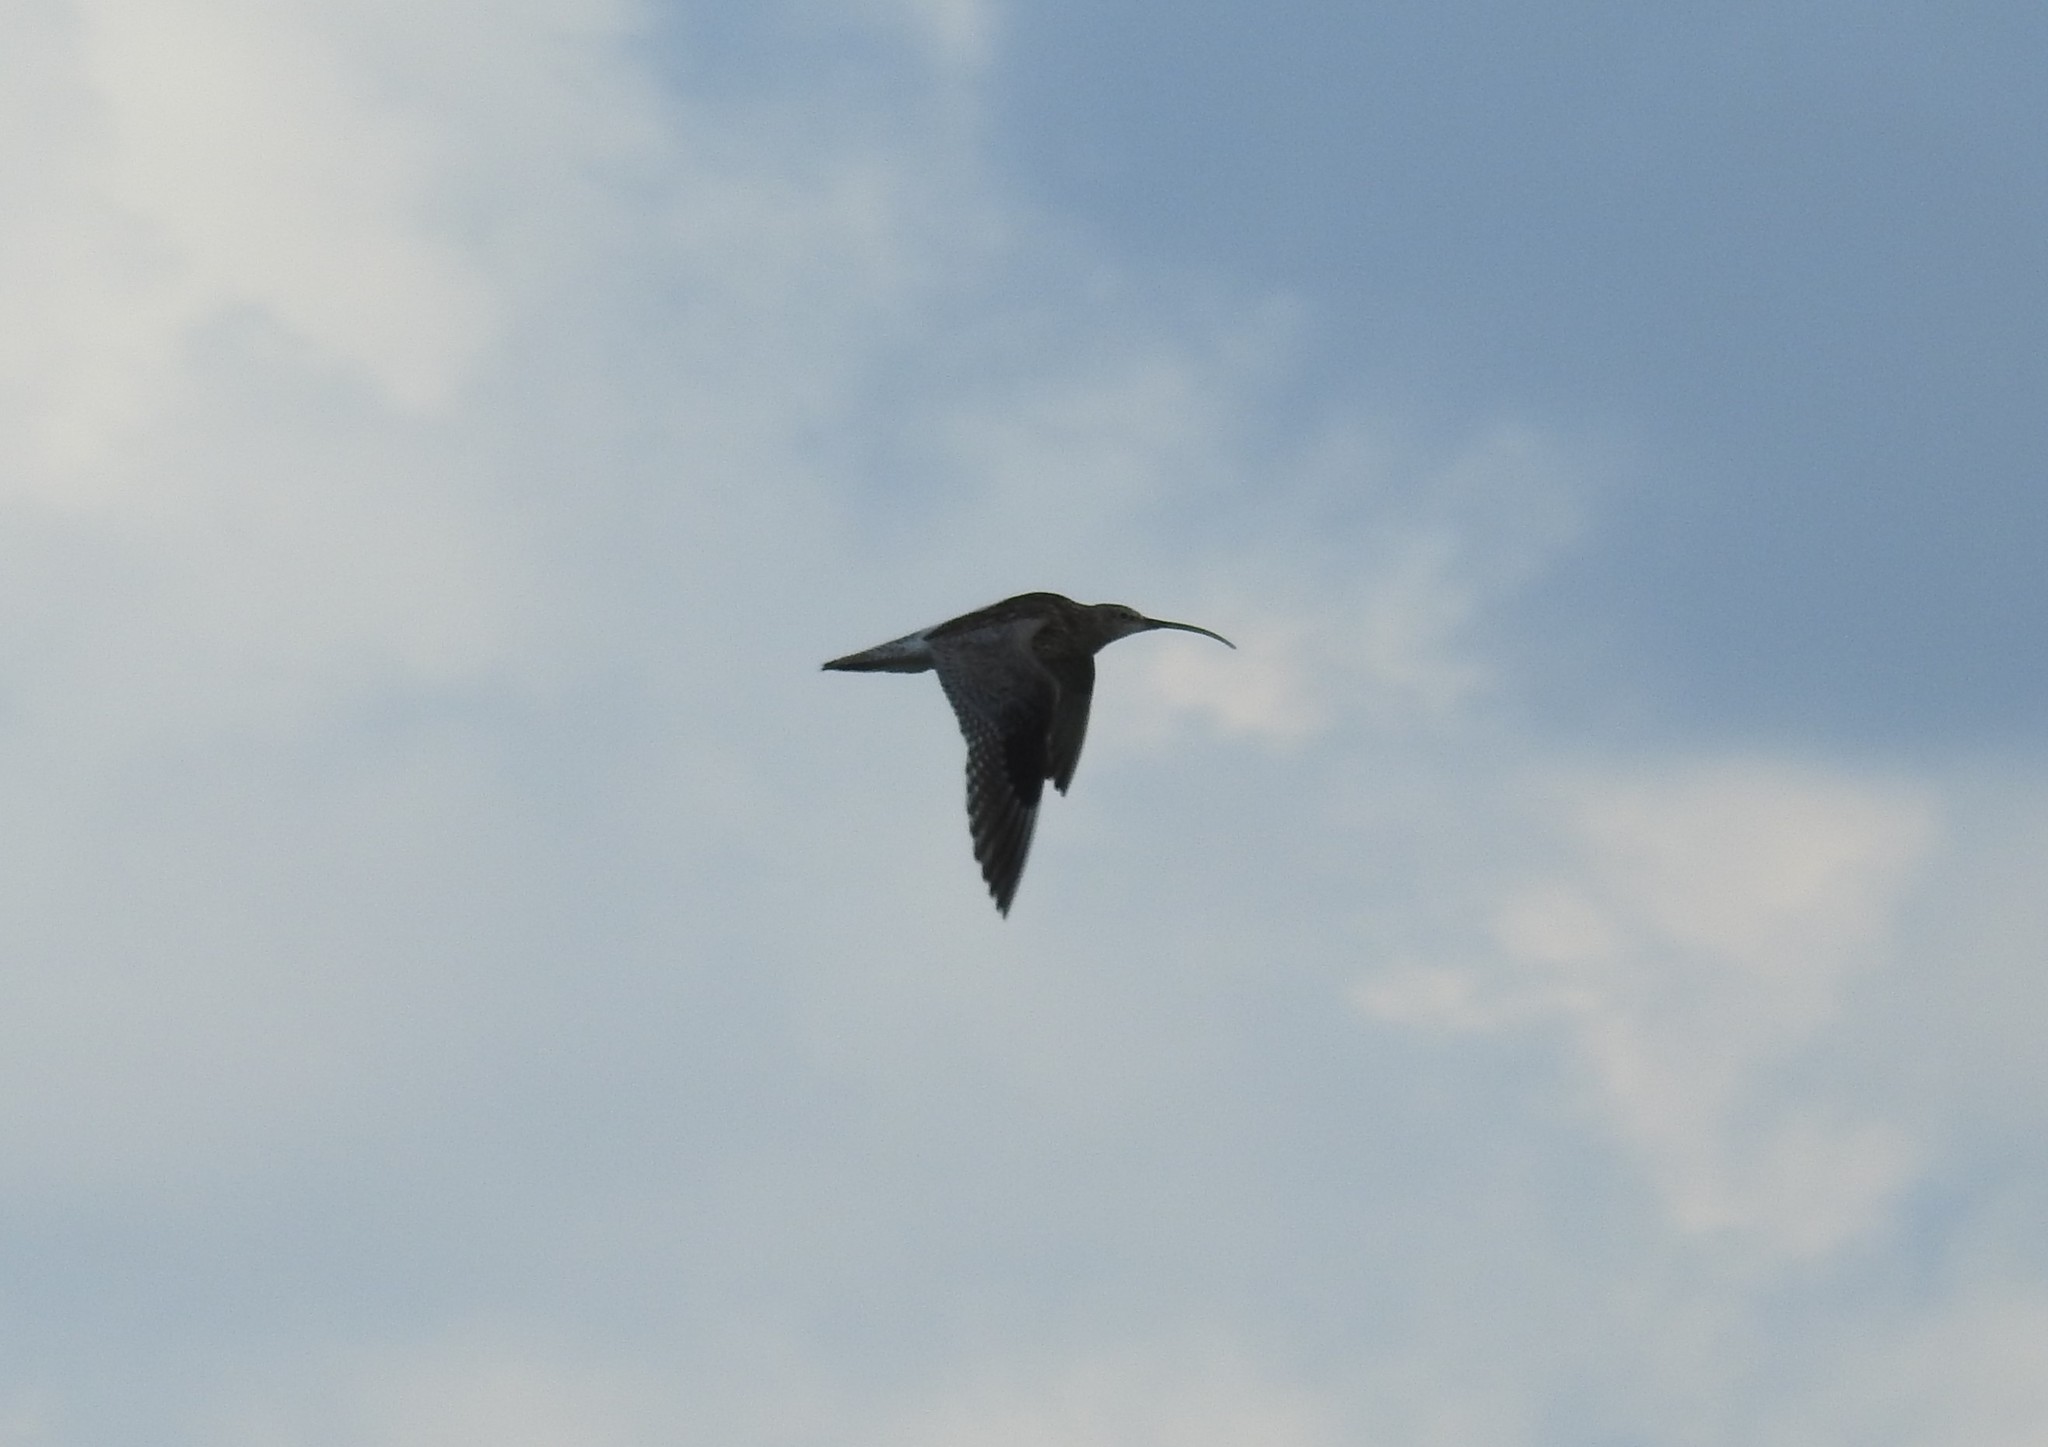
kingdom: Animalia
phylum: Chordata
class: Aves
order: Charadriiformes
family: Scolopacidae
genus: Numenius
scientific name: Numenius phaeopus
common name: Whimbrel
